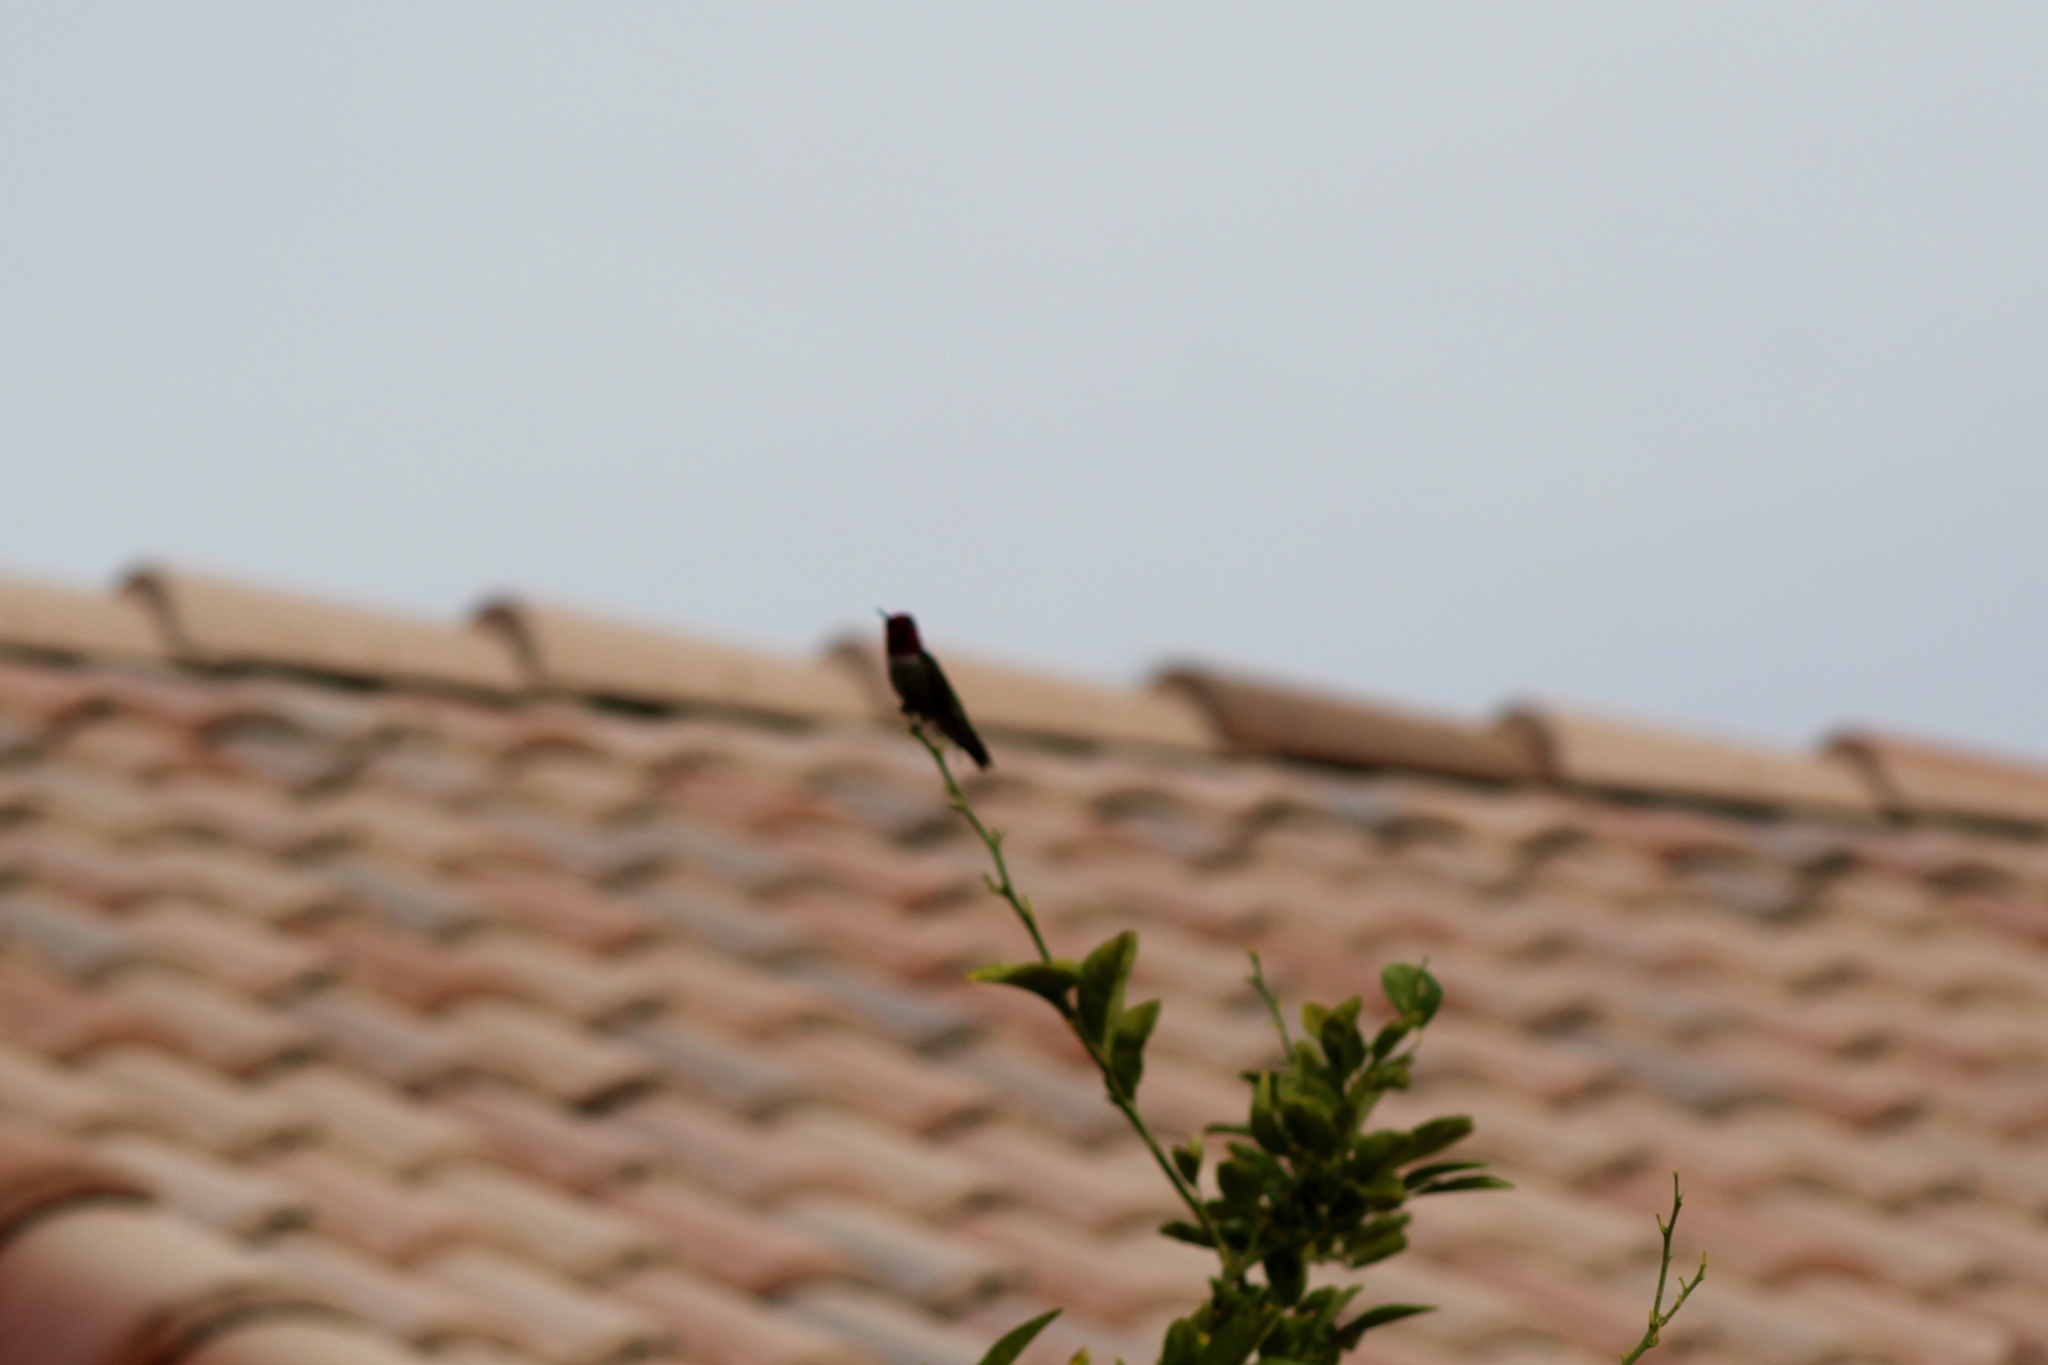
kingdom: Animalia
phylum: Chordata
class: Aves
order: Apodiformes
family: Trochilidae
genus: Calypte
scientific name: Calypte anna
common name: Anna's hummingbird
